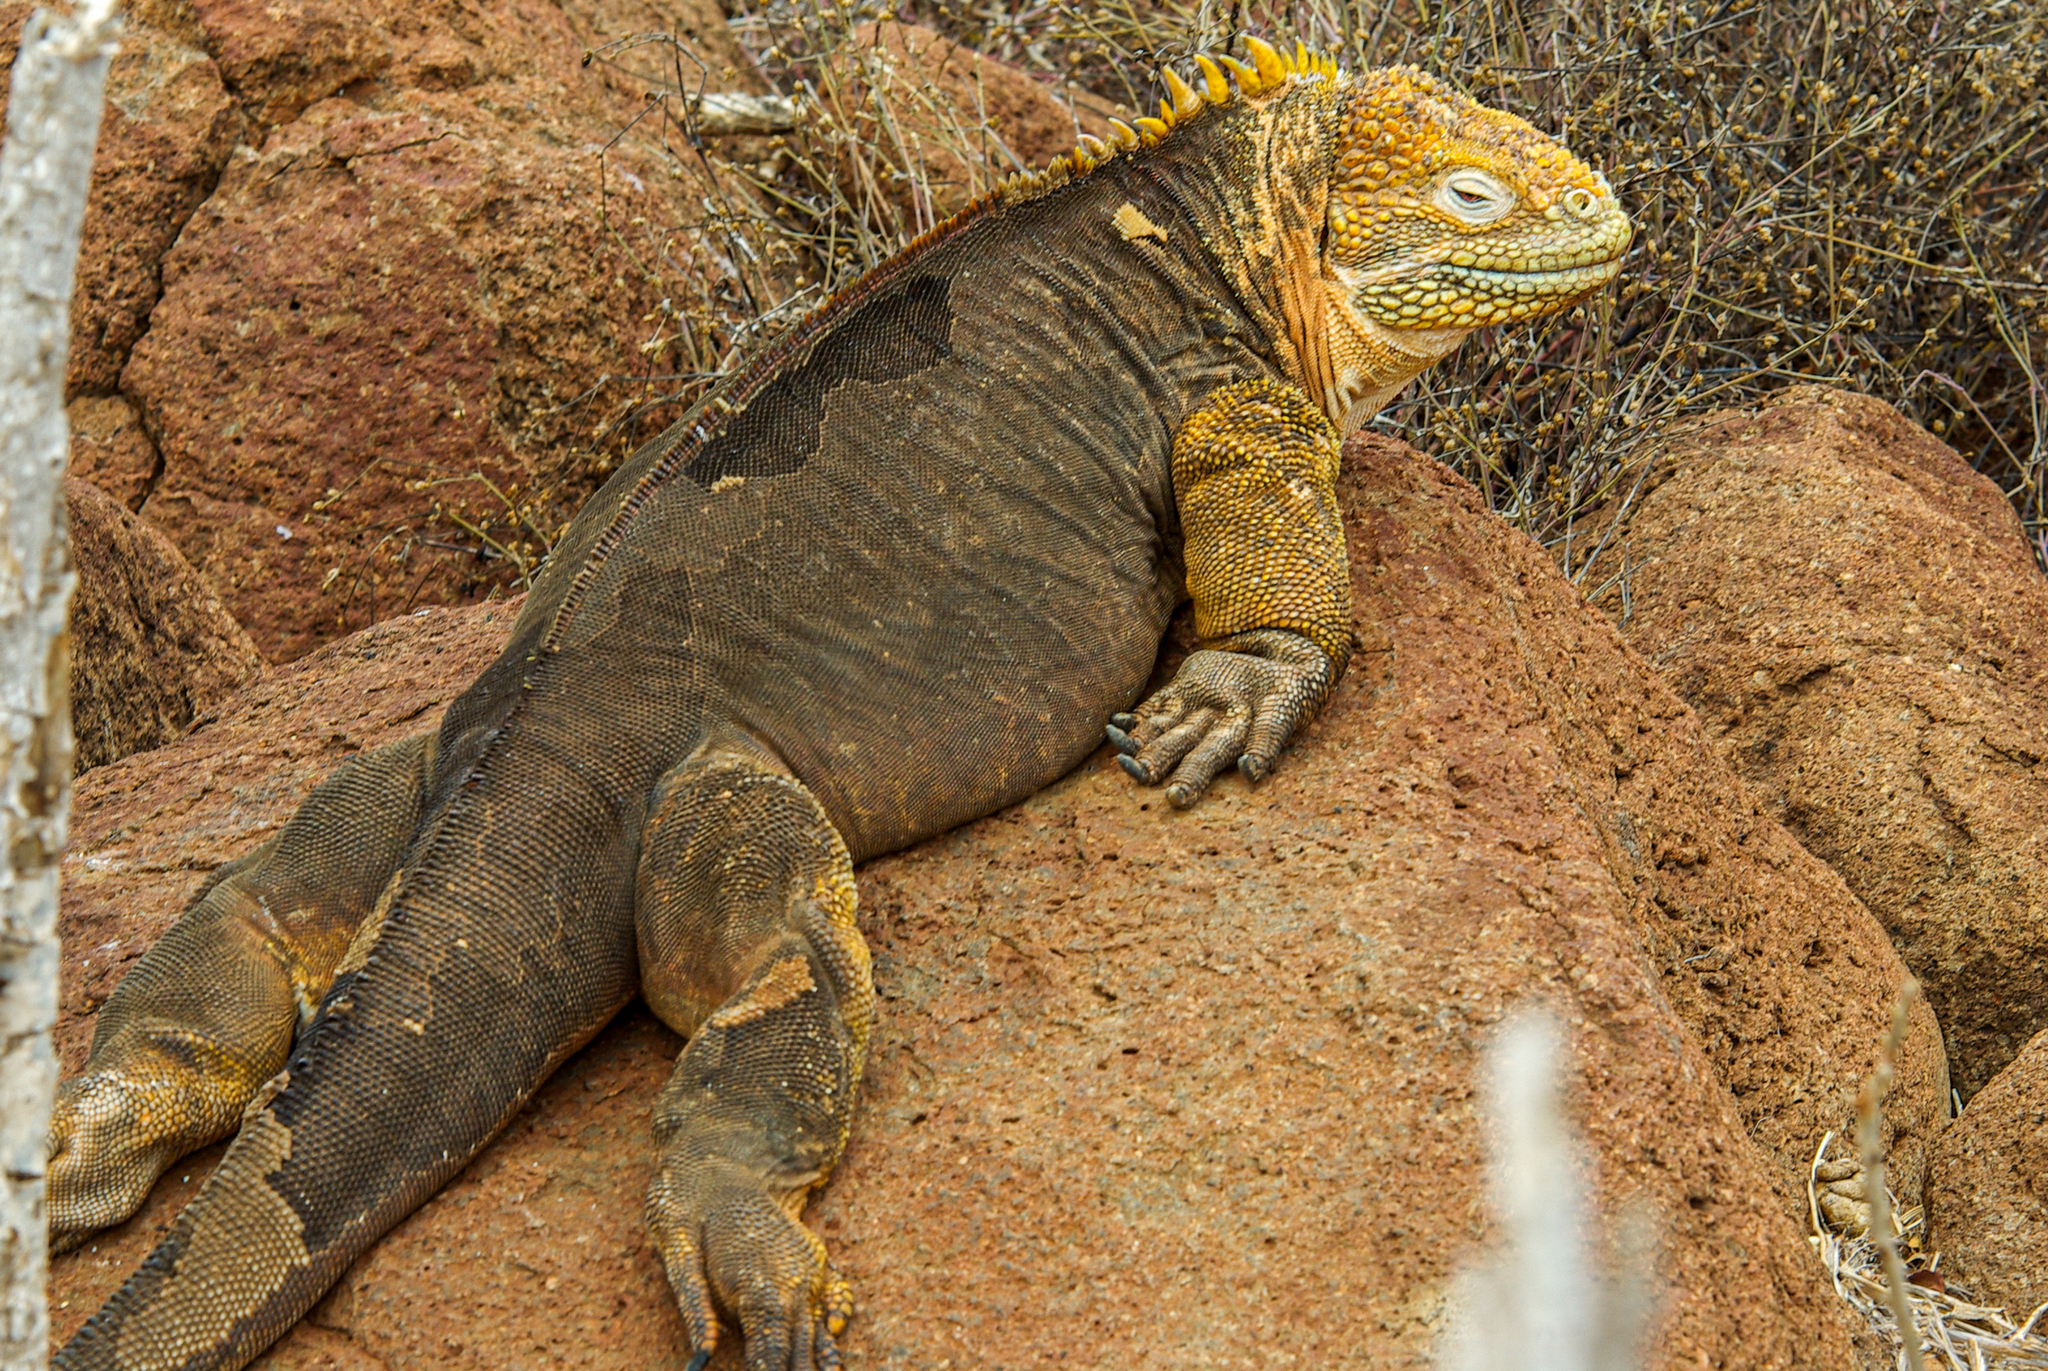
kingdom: Animalia
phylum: Chordata
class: Squamata
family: Iguanidae
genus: Conolophus
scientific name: Conolophus subcristatus
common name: Galapagos land iguana
